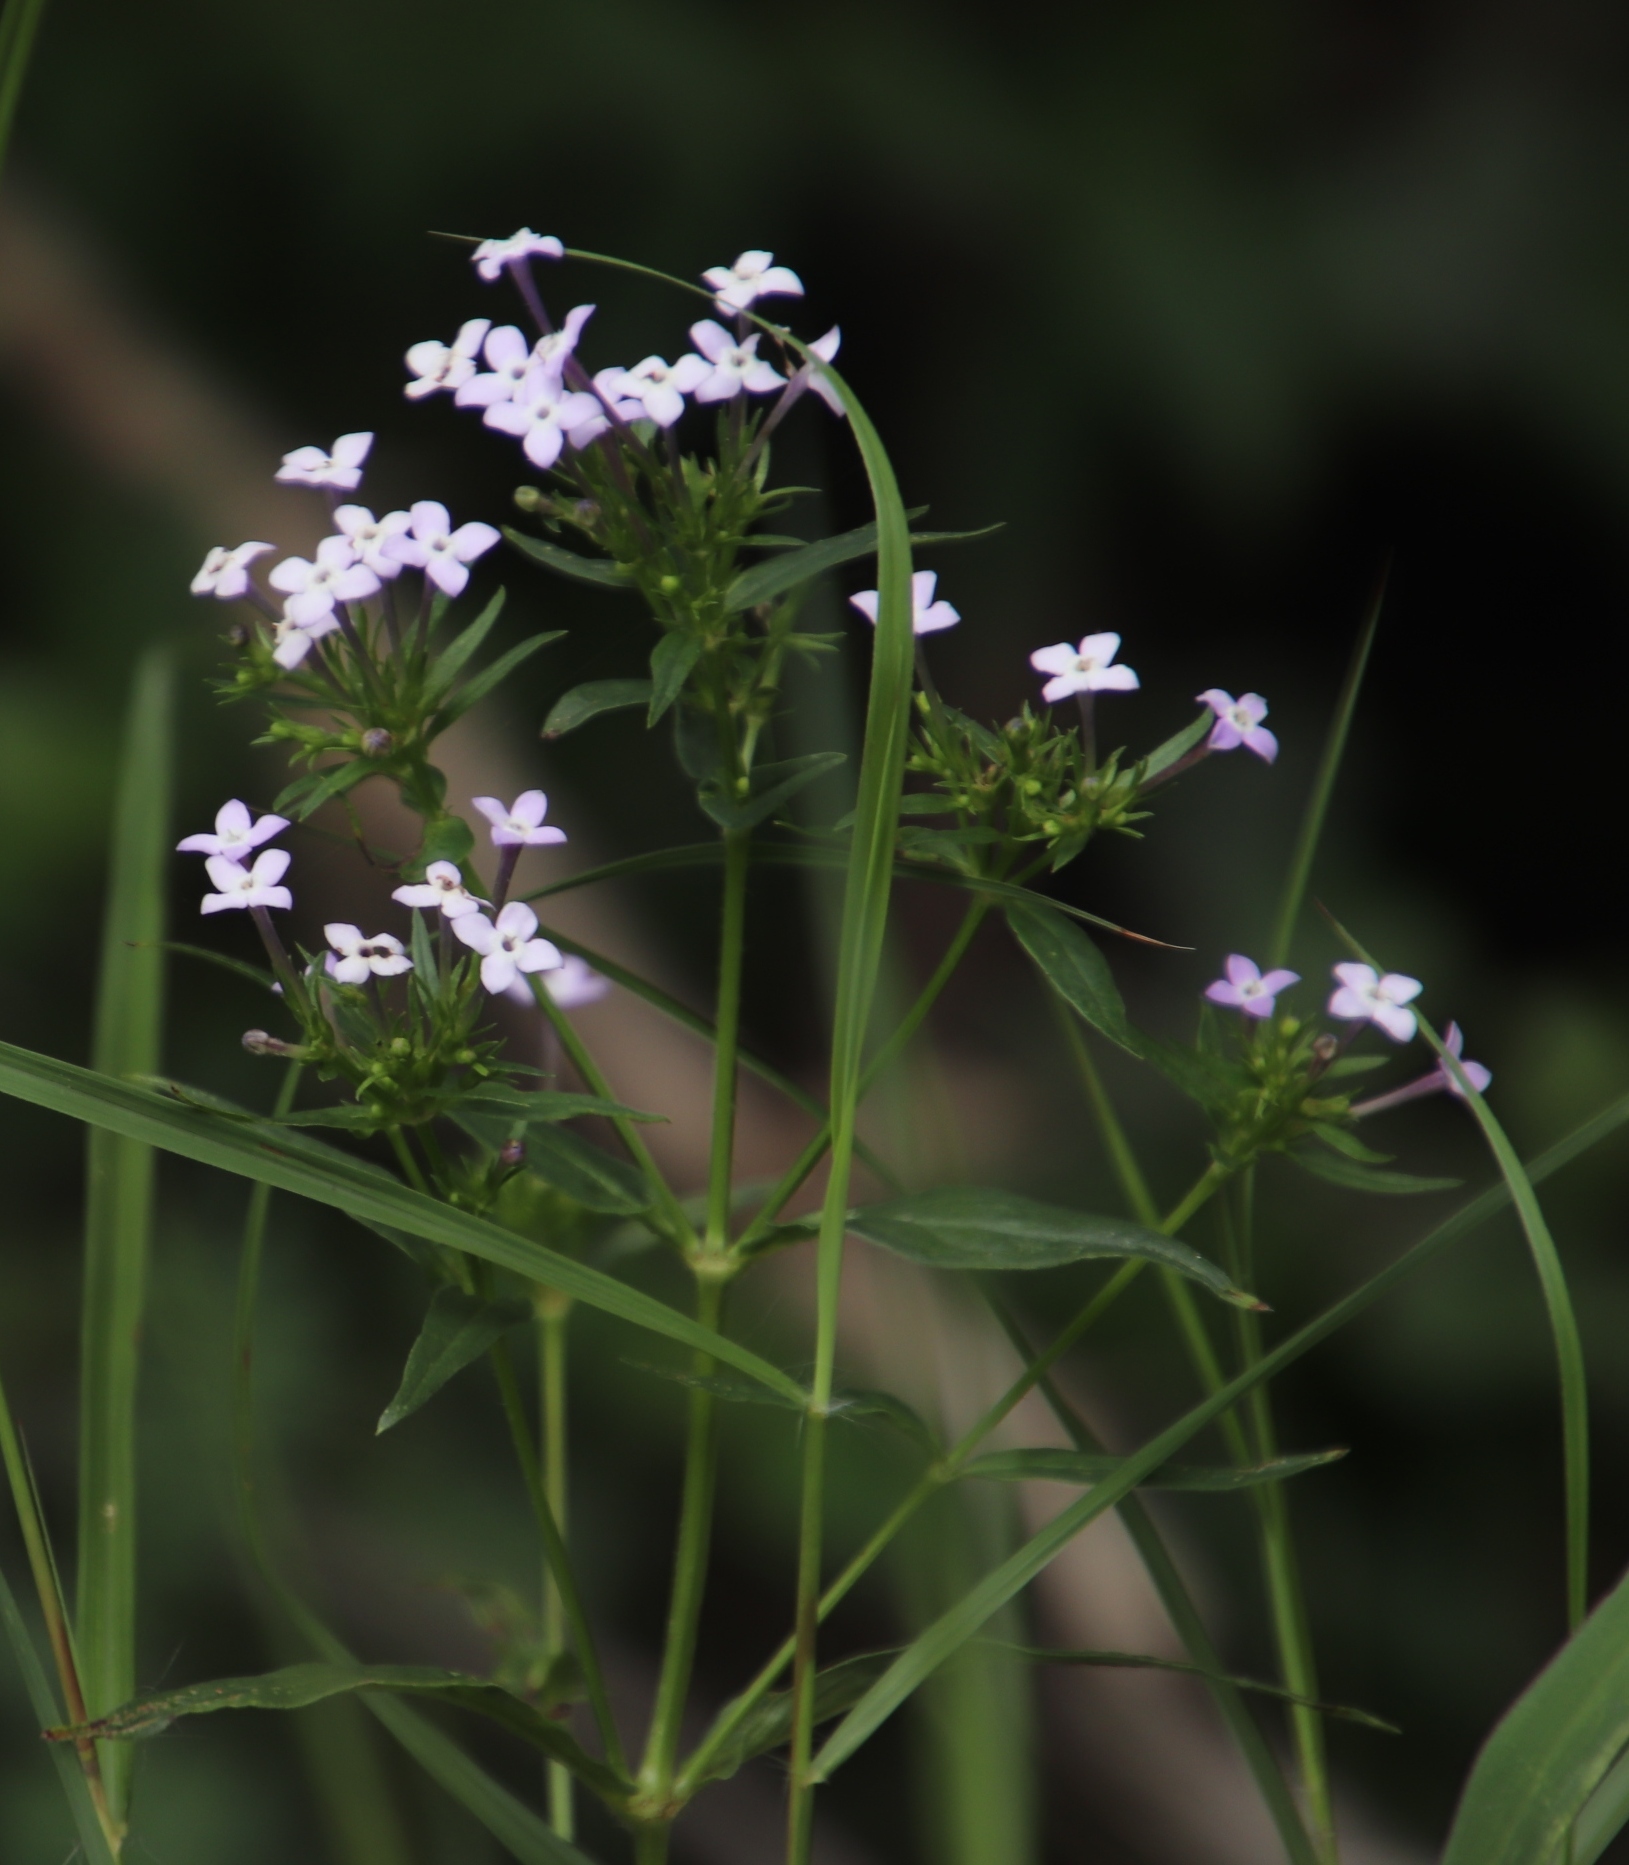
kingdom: Plantae
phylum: Tracheophyta
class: Magnoliopsida
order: Gentianales
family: Rubiaceae
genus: Conostomium
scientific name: Conostomium natalense
